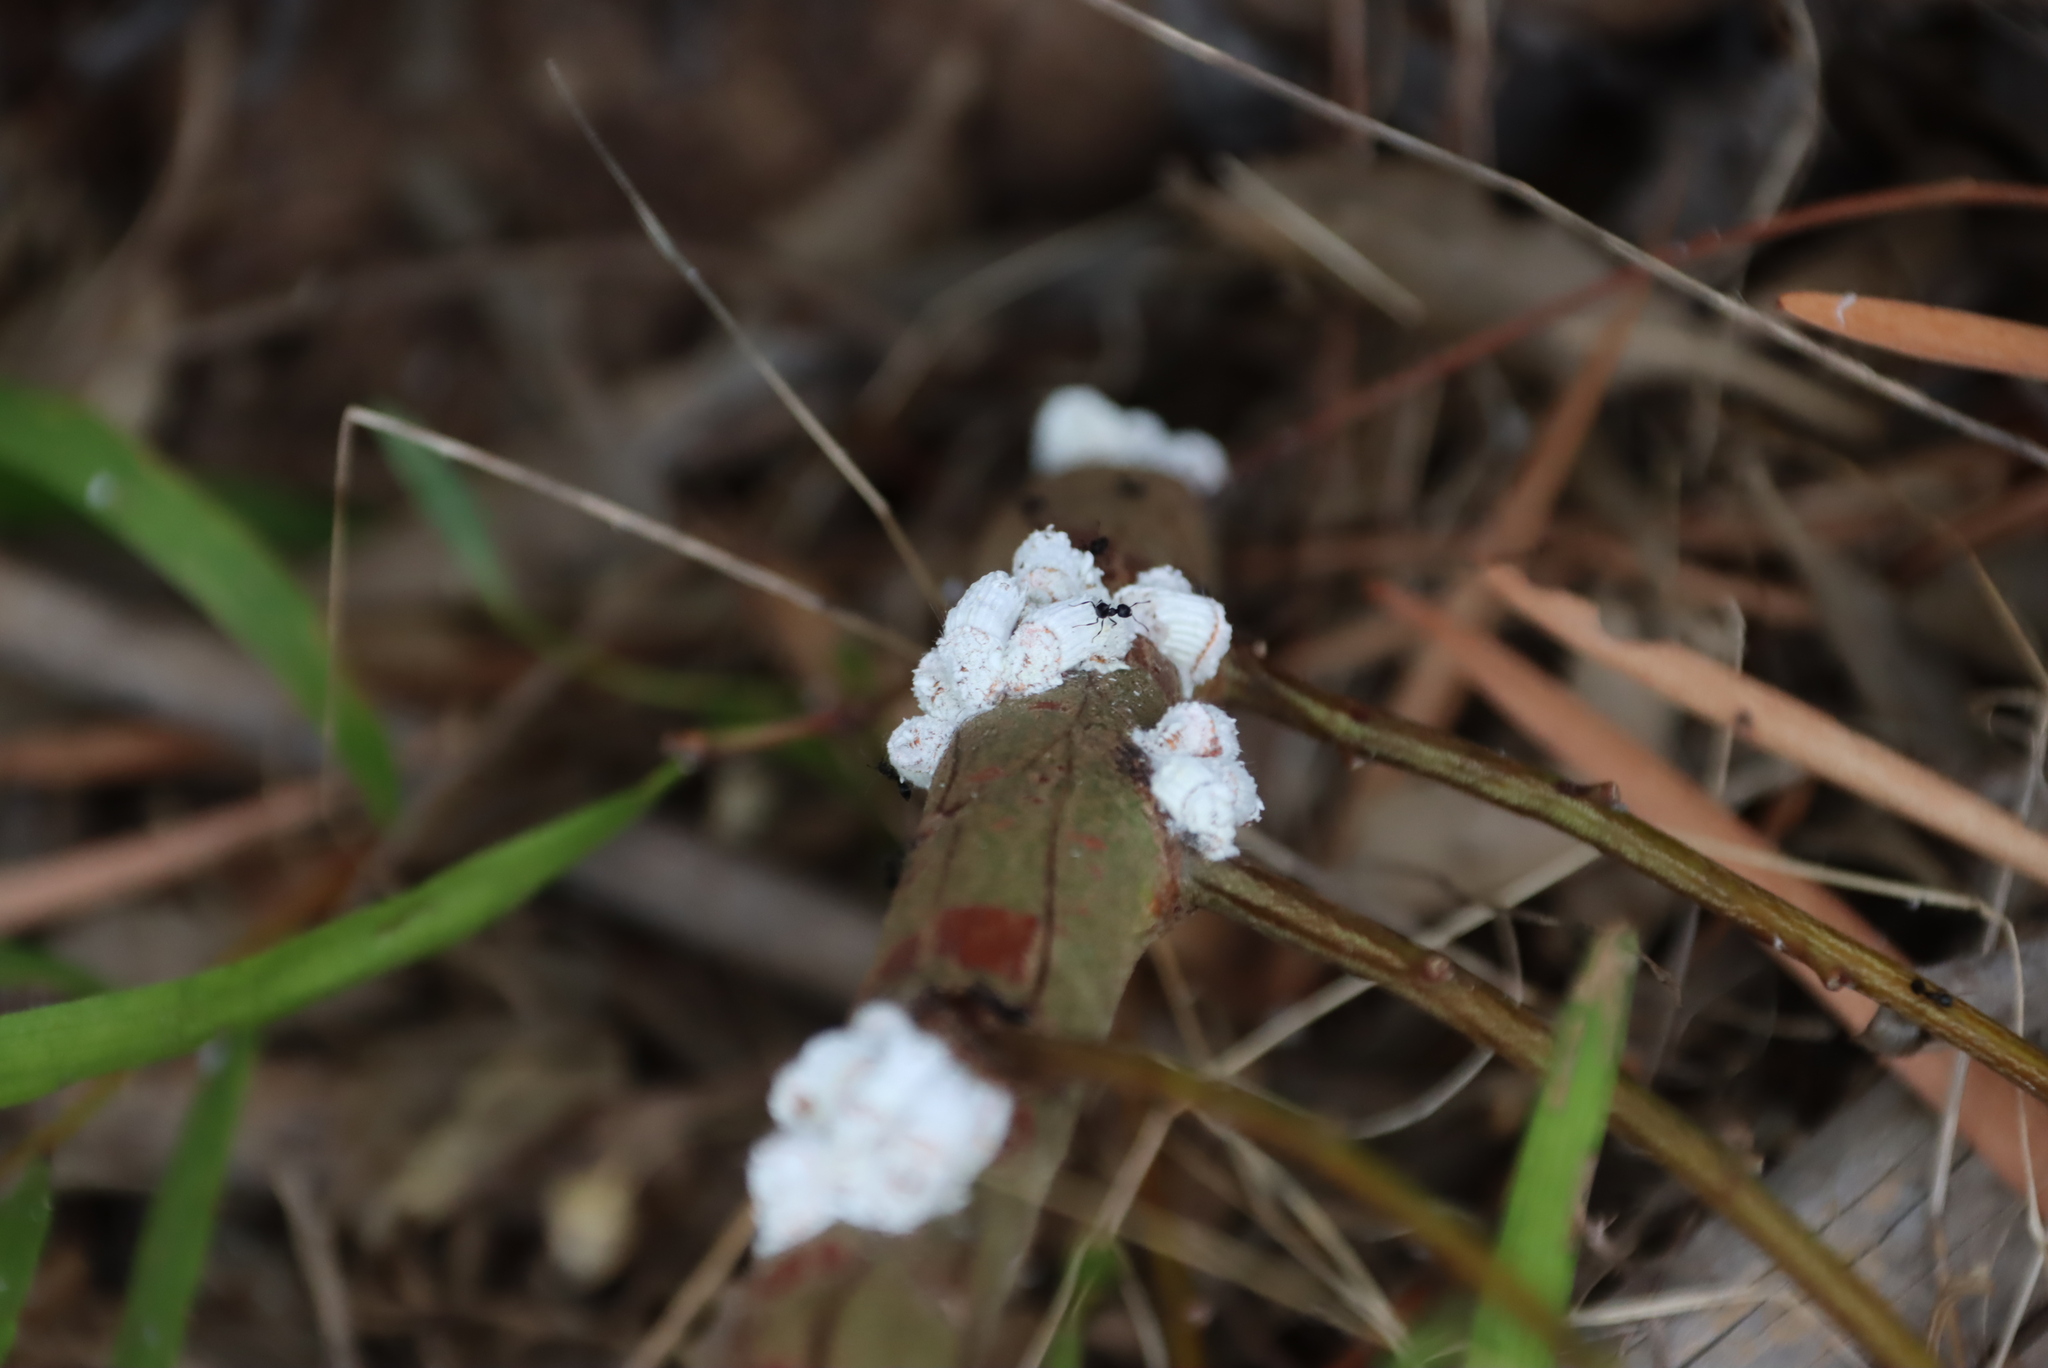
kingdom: Animalia
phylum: Arthropoda
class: Insecta
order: Hemiptera
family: Margarodidae
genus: Icerya
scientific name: Icerya purchasi
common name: Cottony cushion scale
